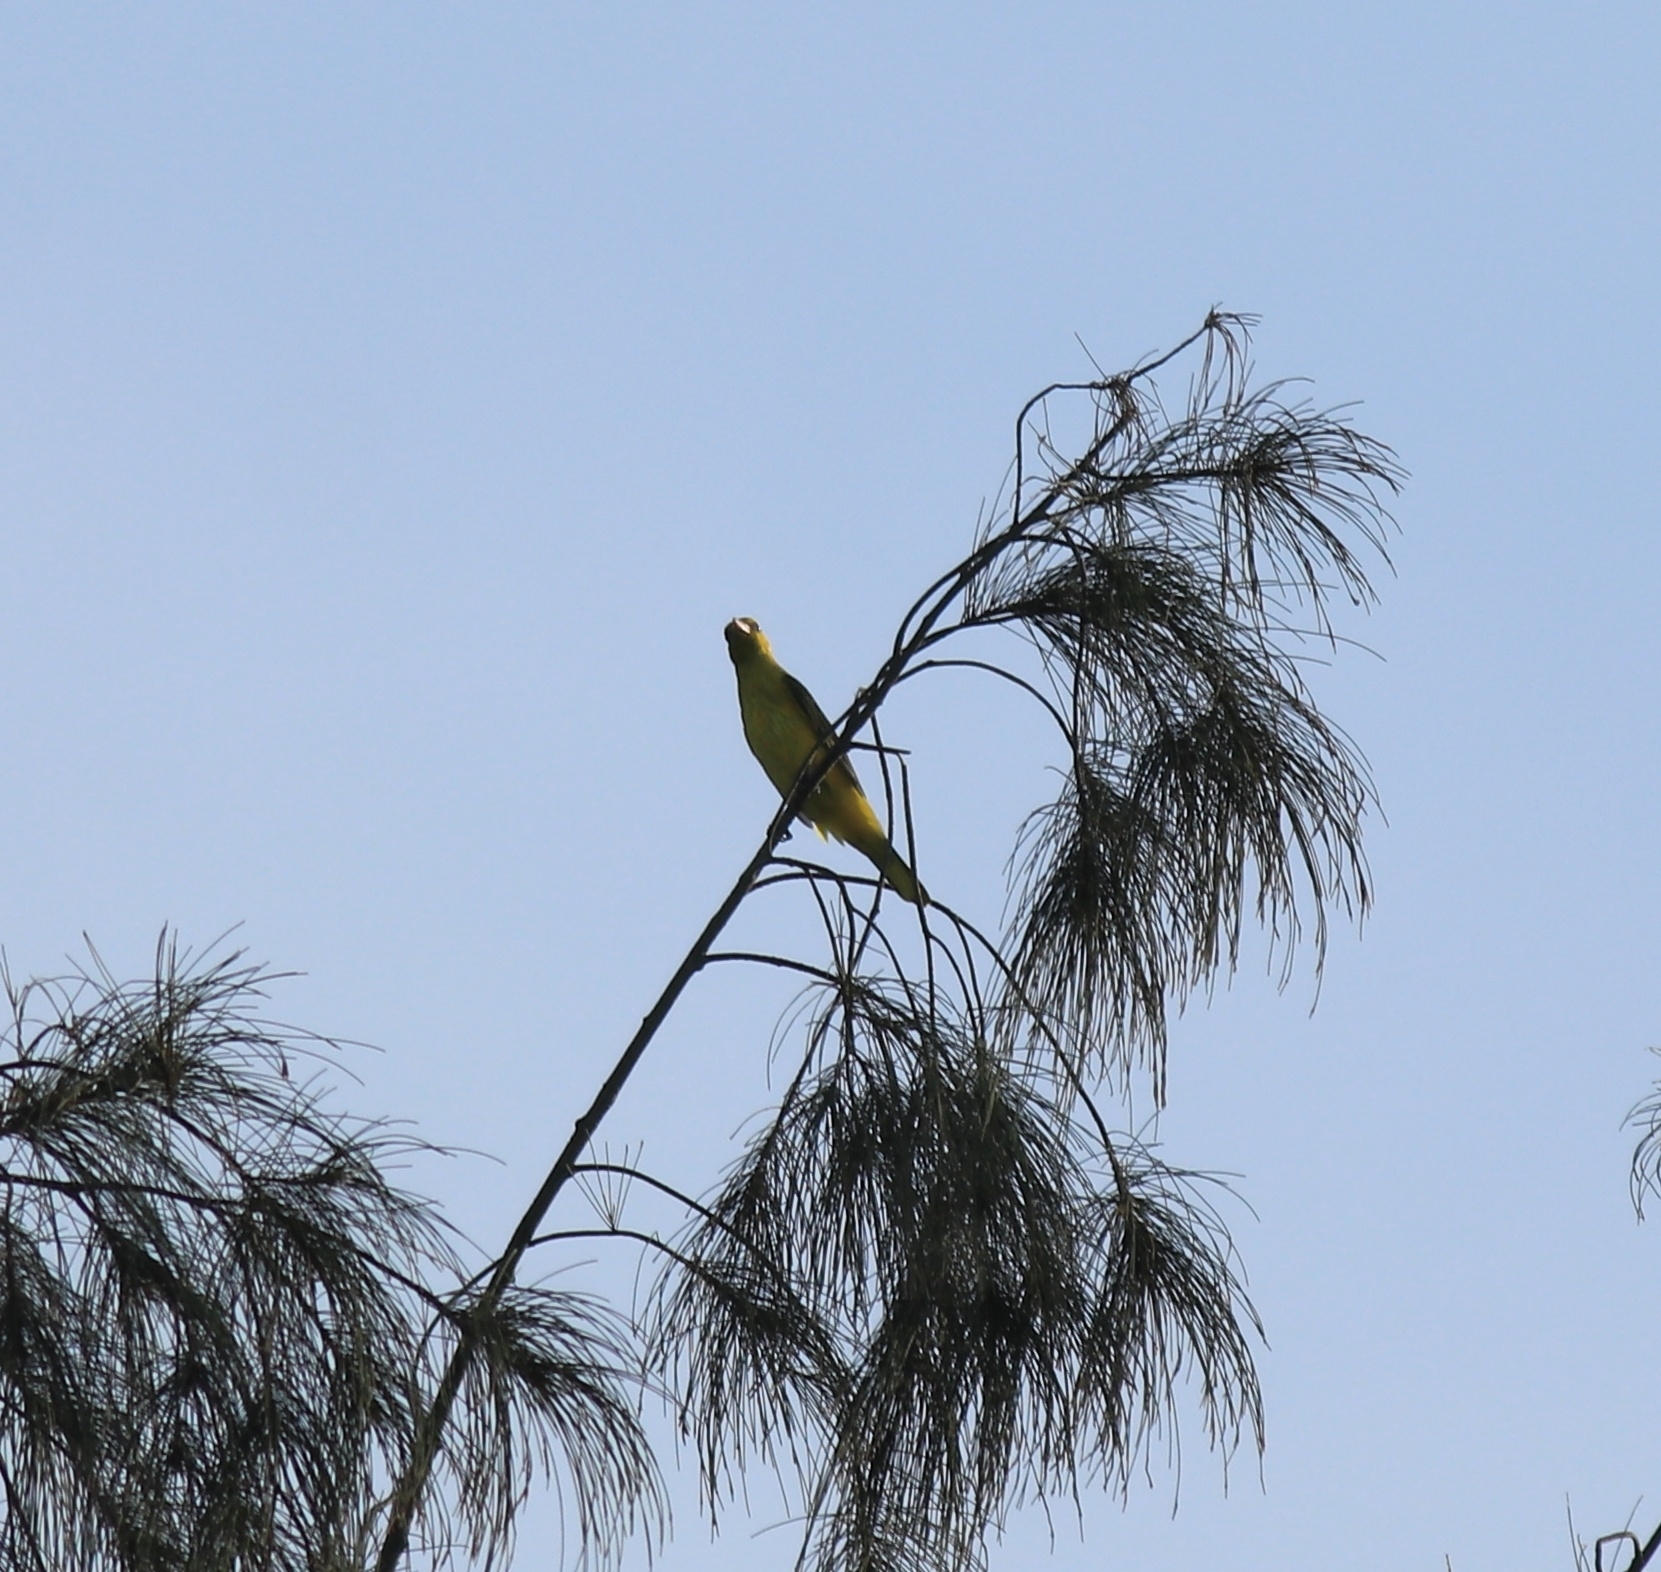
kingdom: Animalia
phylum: Chordata
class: Aves
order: Passeriformes
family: Oriolidae
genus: Oriolus
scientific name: Oriolus kundoo
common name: Indian golden oriole
